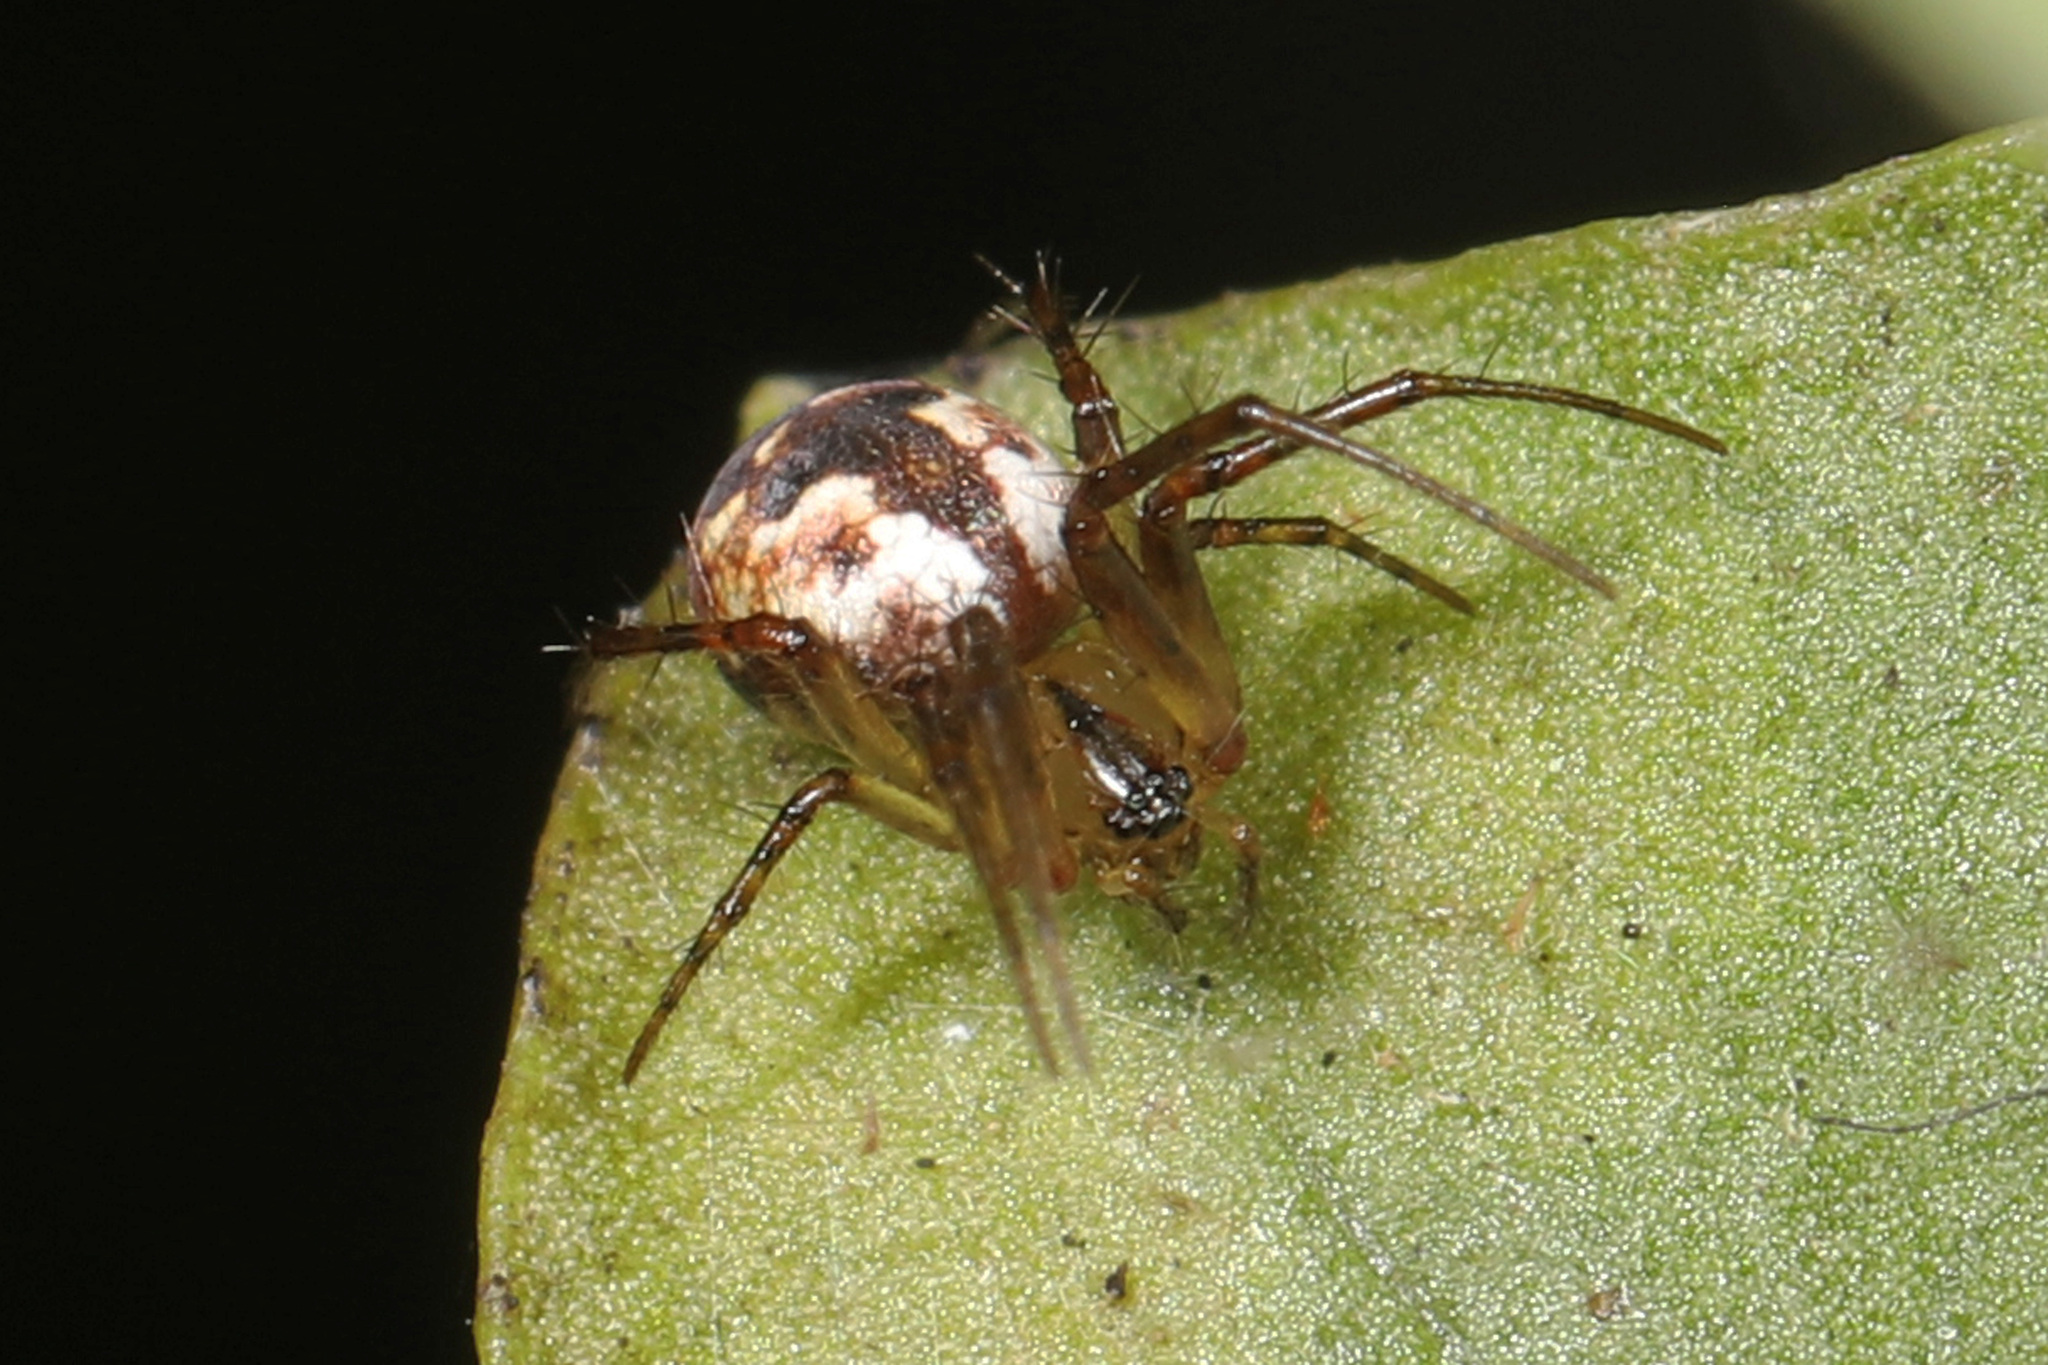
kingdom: Animalia
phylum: Arthropoda
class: Arachnida
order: Araneae
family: Araneidae
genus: Mangora
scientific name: Mangora placida
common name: Tuft-legged orbweaver
